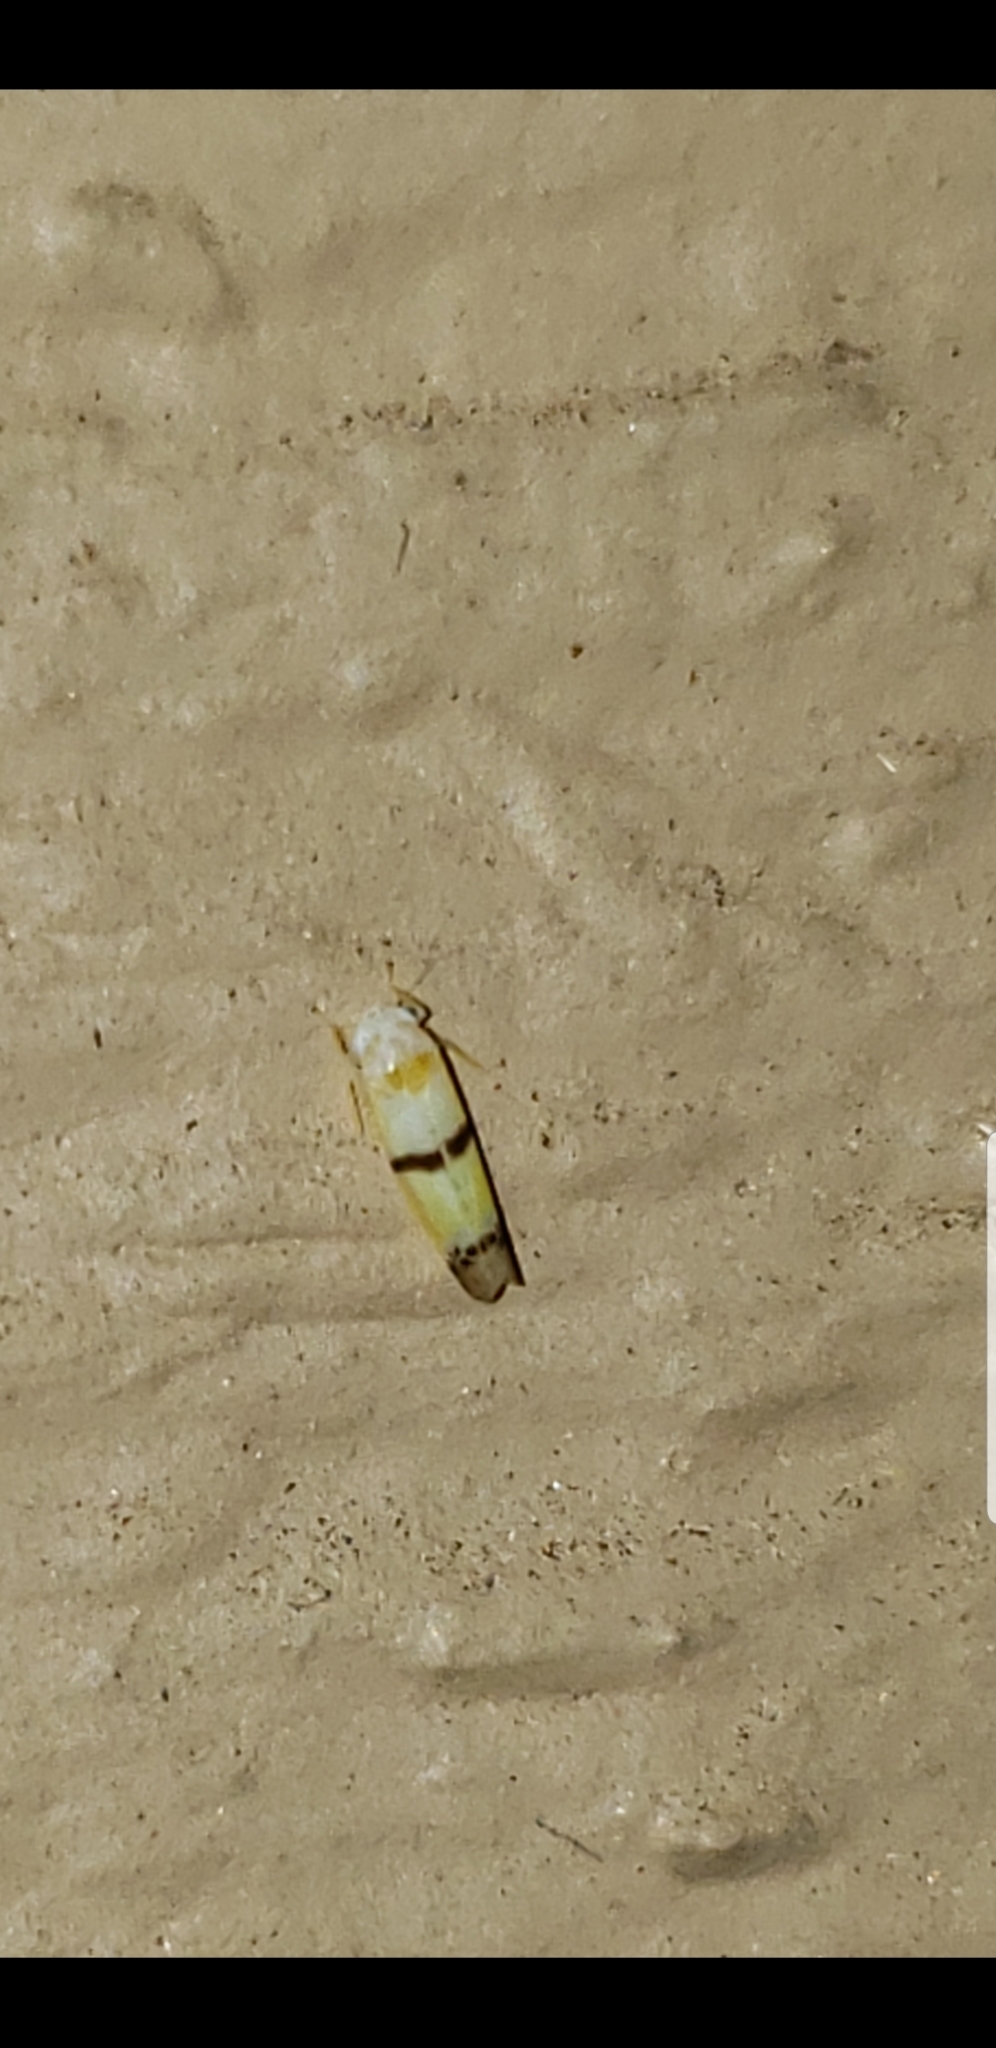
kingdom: Animalia
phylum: Arthropoda
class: Insecta
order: Hemiptera
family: Cicadellidae
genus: Empoa
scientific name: Empoa gillettei
